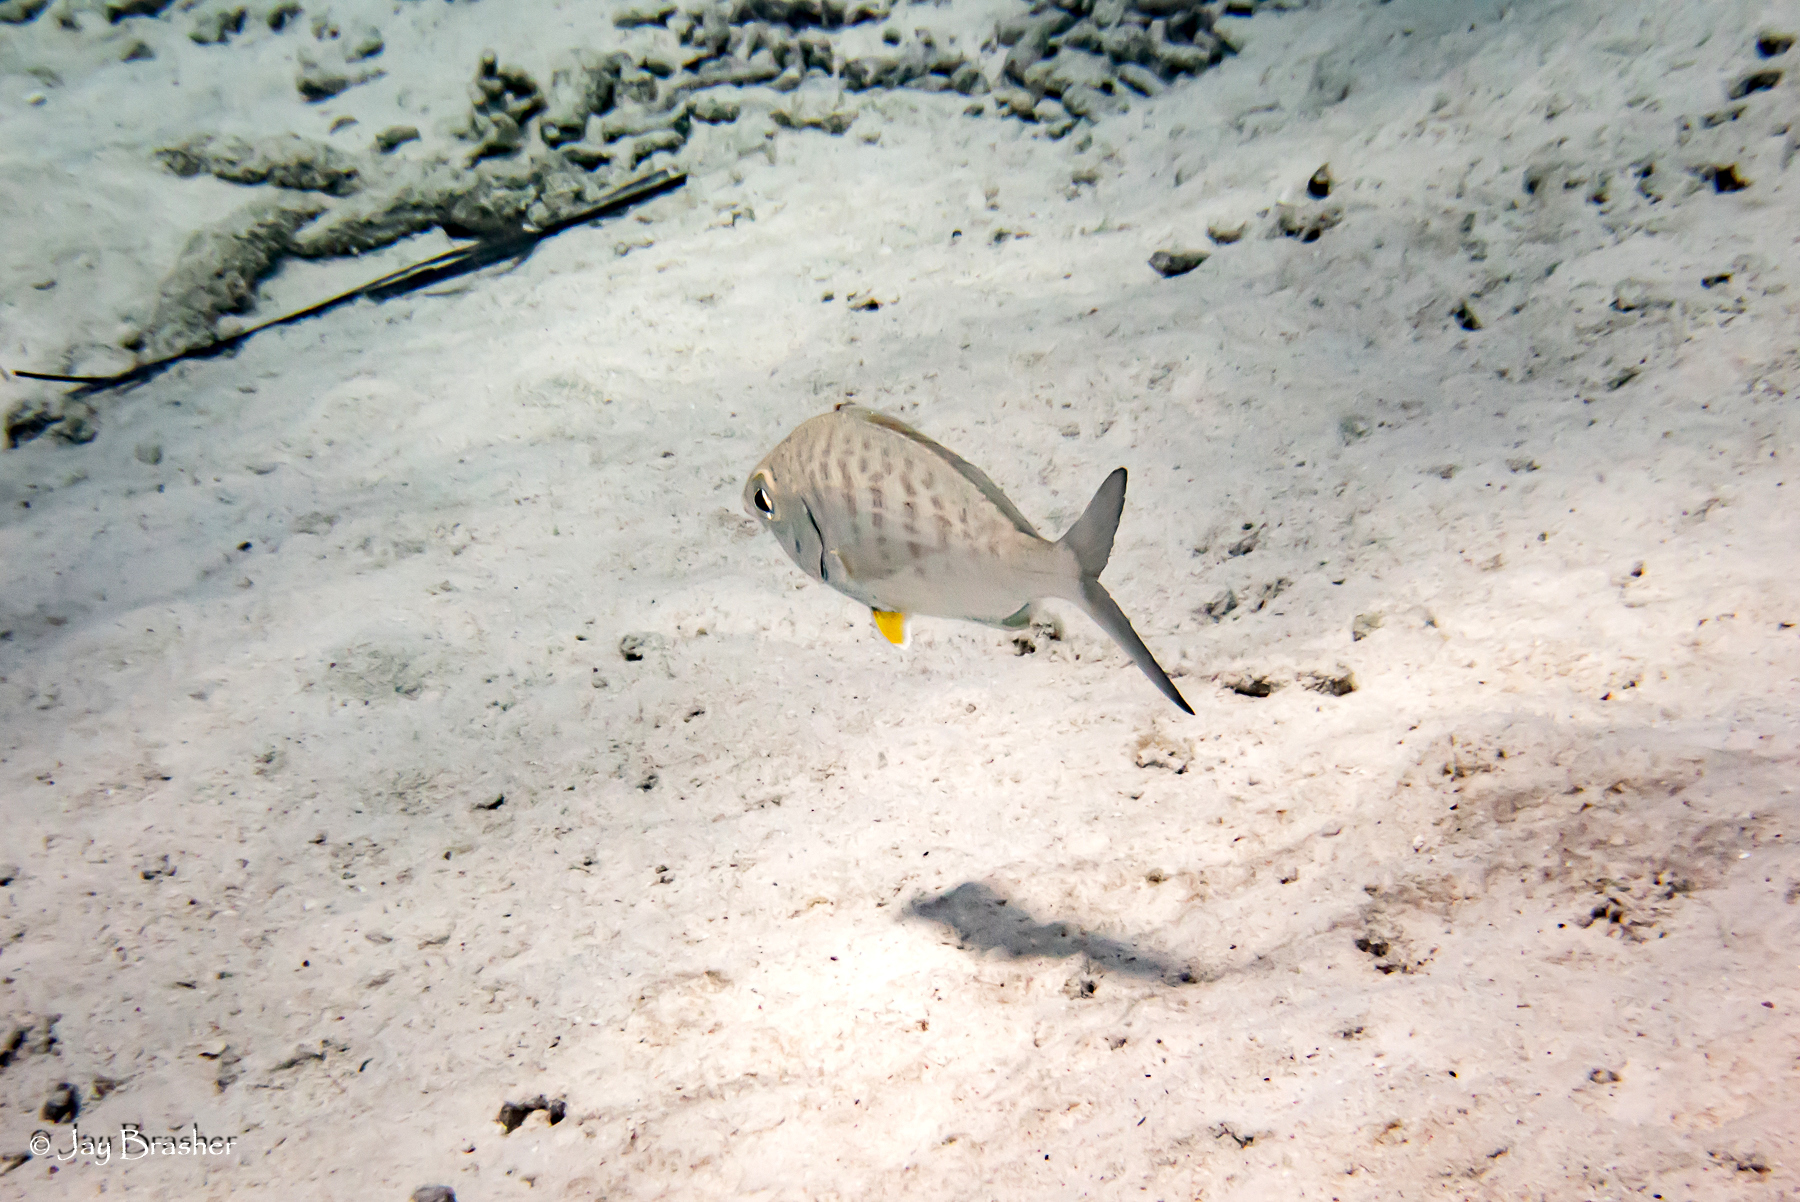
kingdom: Animalia
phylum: Chordata
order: Perciformes
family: Gerreidae
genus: Gerres
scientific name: Gerres cinereus
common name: Hedow
